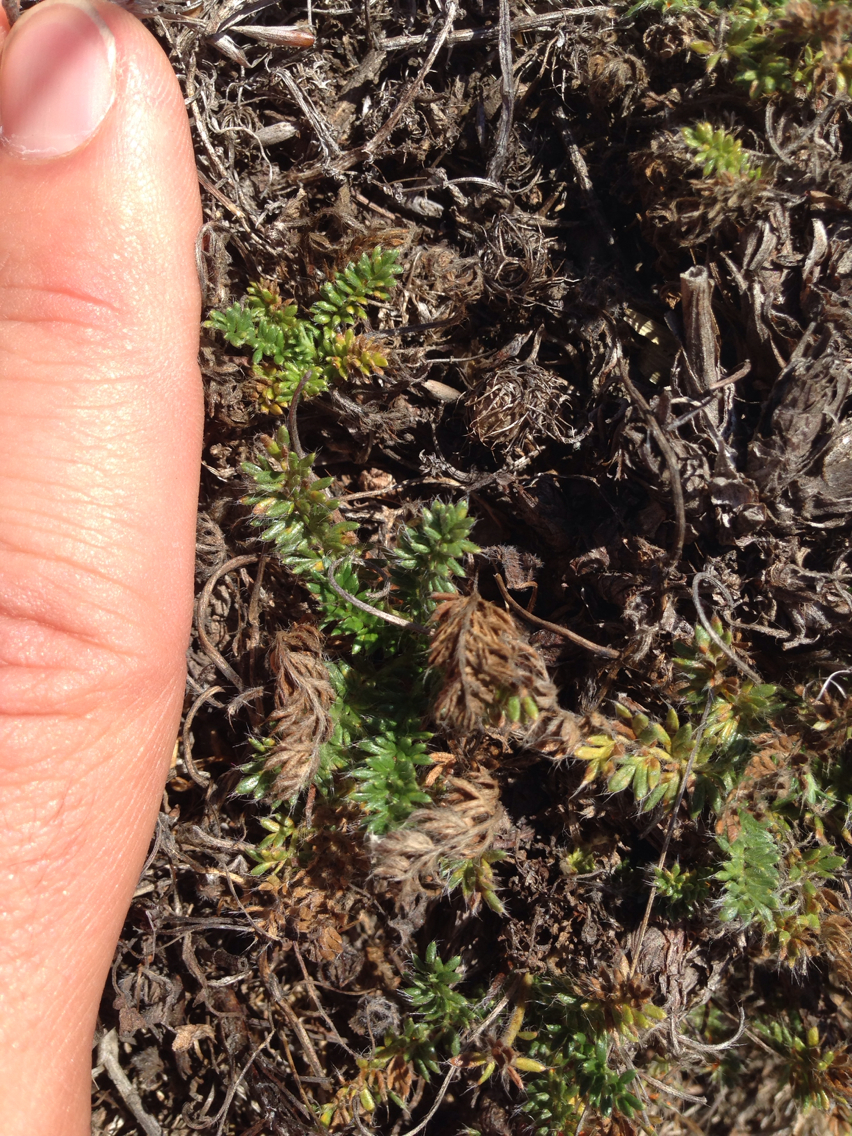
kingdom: Plantae
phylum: Tracheophyta
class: Magnoliopsida
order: Rosales
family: Rosaceae
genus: Acaena
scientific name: Acaena pinnatifida
